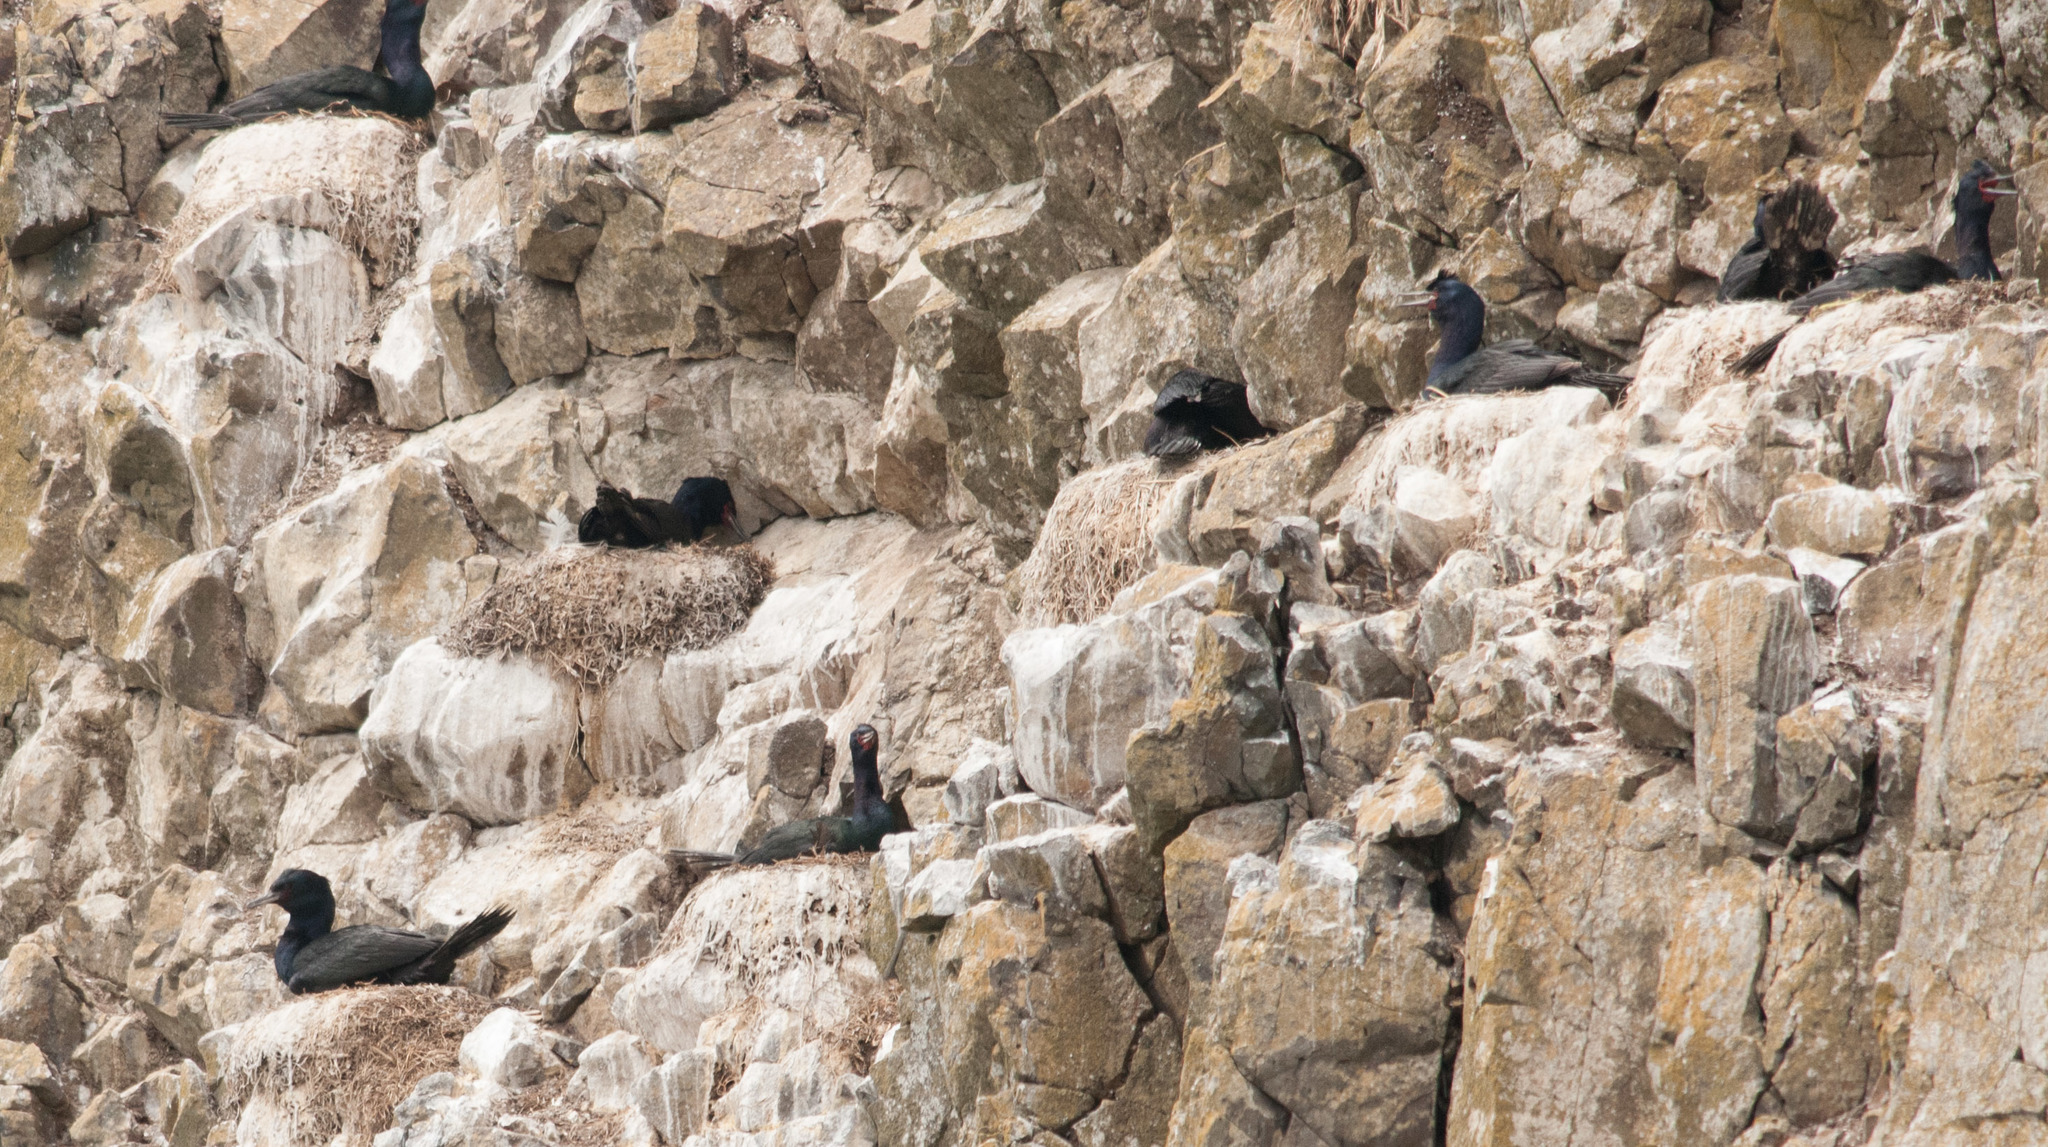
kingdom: Animalia
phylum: Chordata
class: Aves
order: Suliformes
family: Phalacrocoracidae
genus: Phalacrocorax
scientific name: Phalacrocorax pelagicus
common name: Pelagic cormorant
